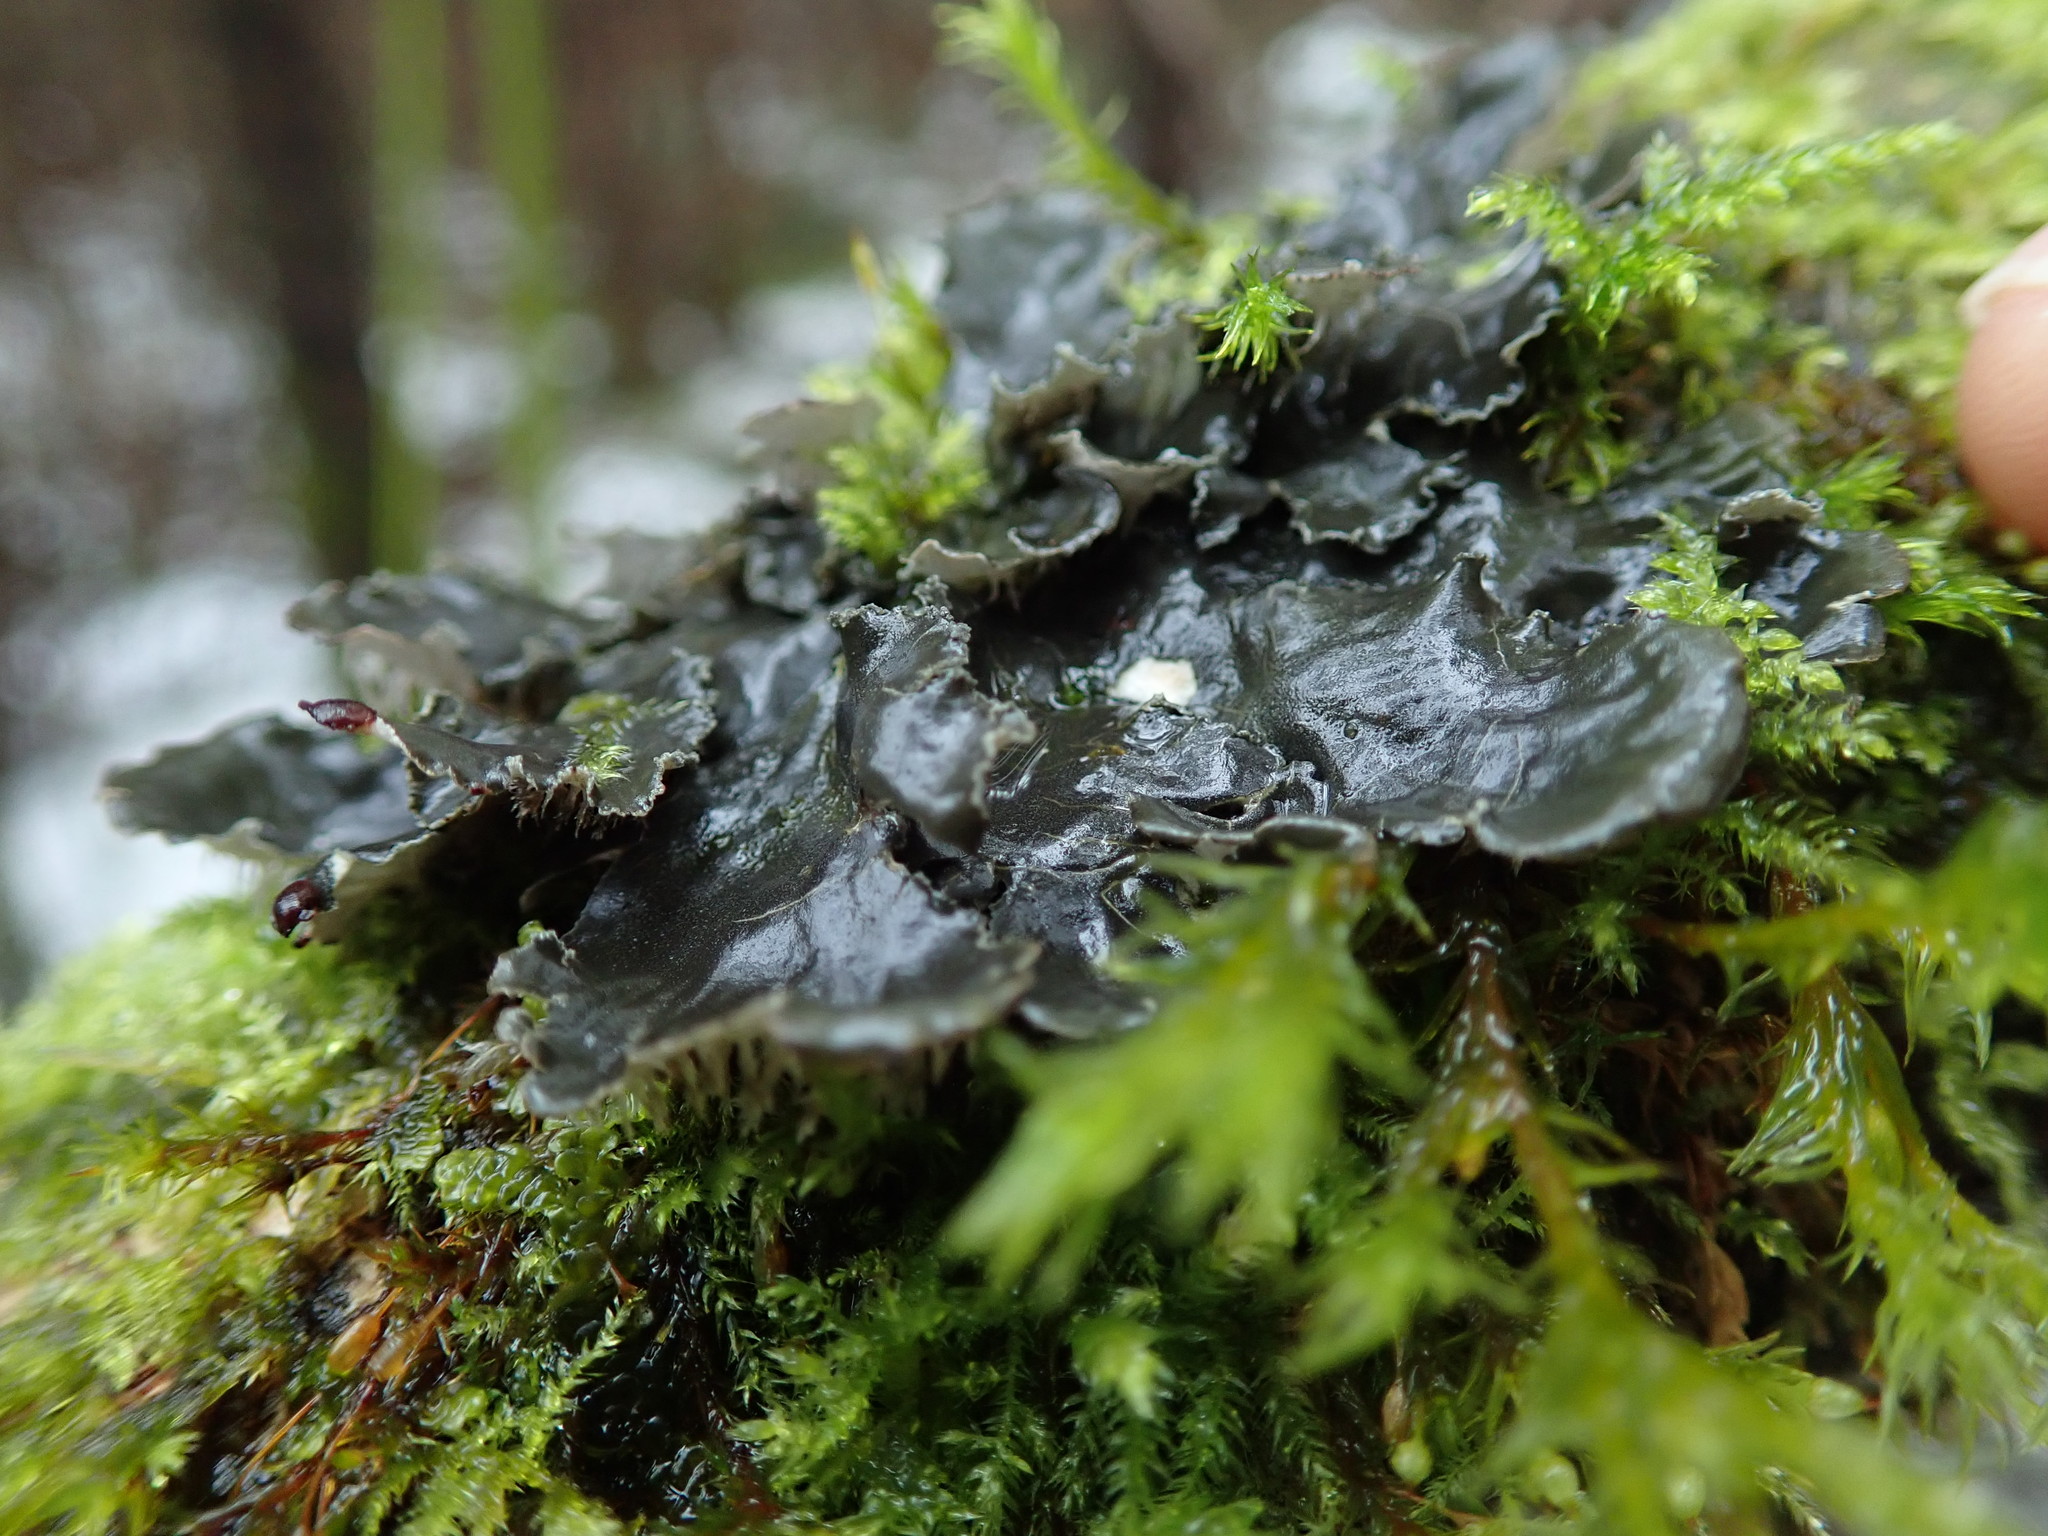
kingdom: Fungi
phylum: Ascomycota
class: Lecanoromycetes
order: Peltigerales
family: Peltigeraceae
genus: Peltigera
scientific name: Peltigera neckeri
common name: Blacksaddle pelt lichen
